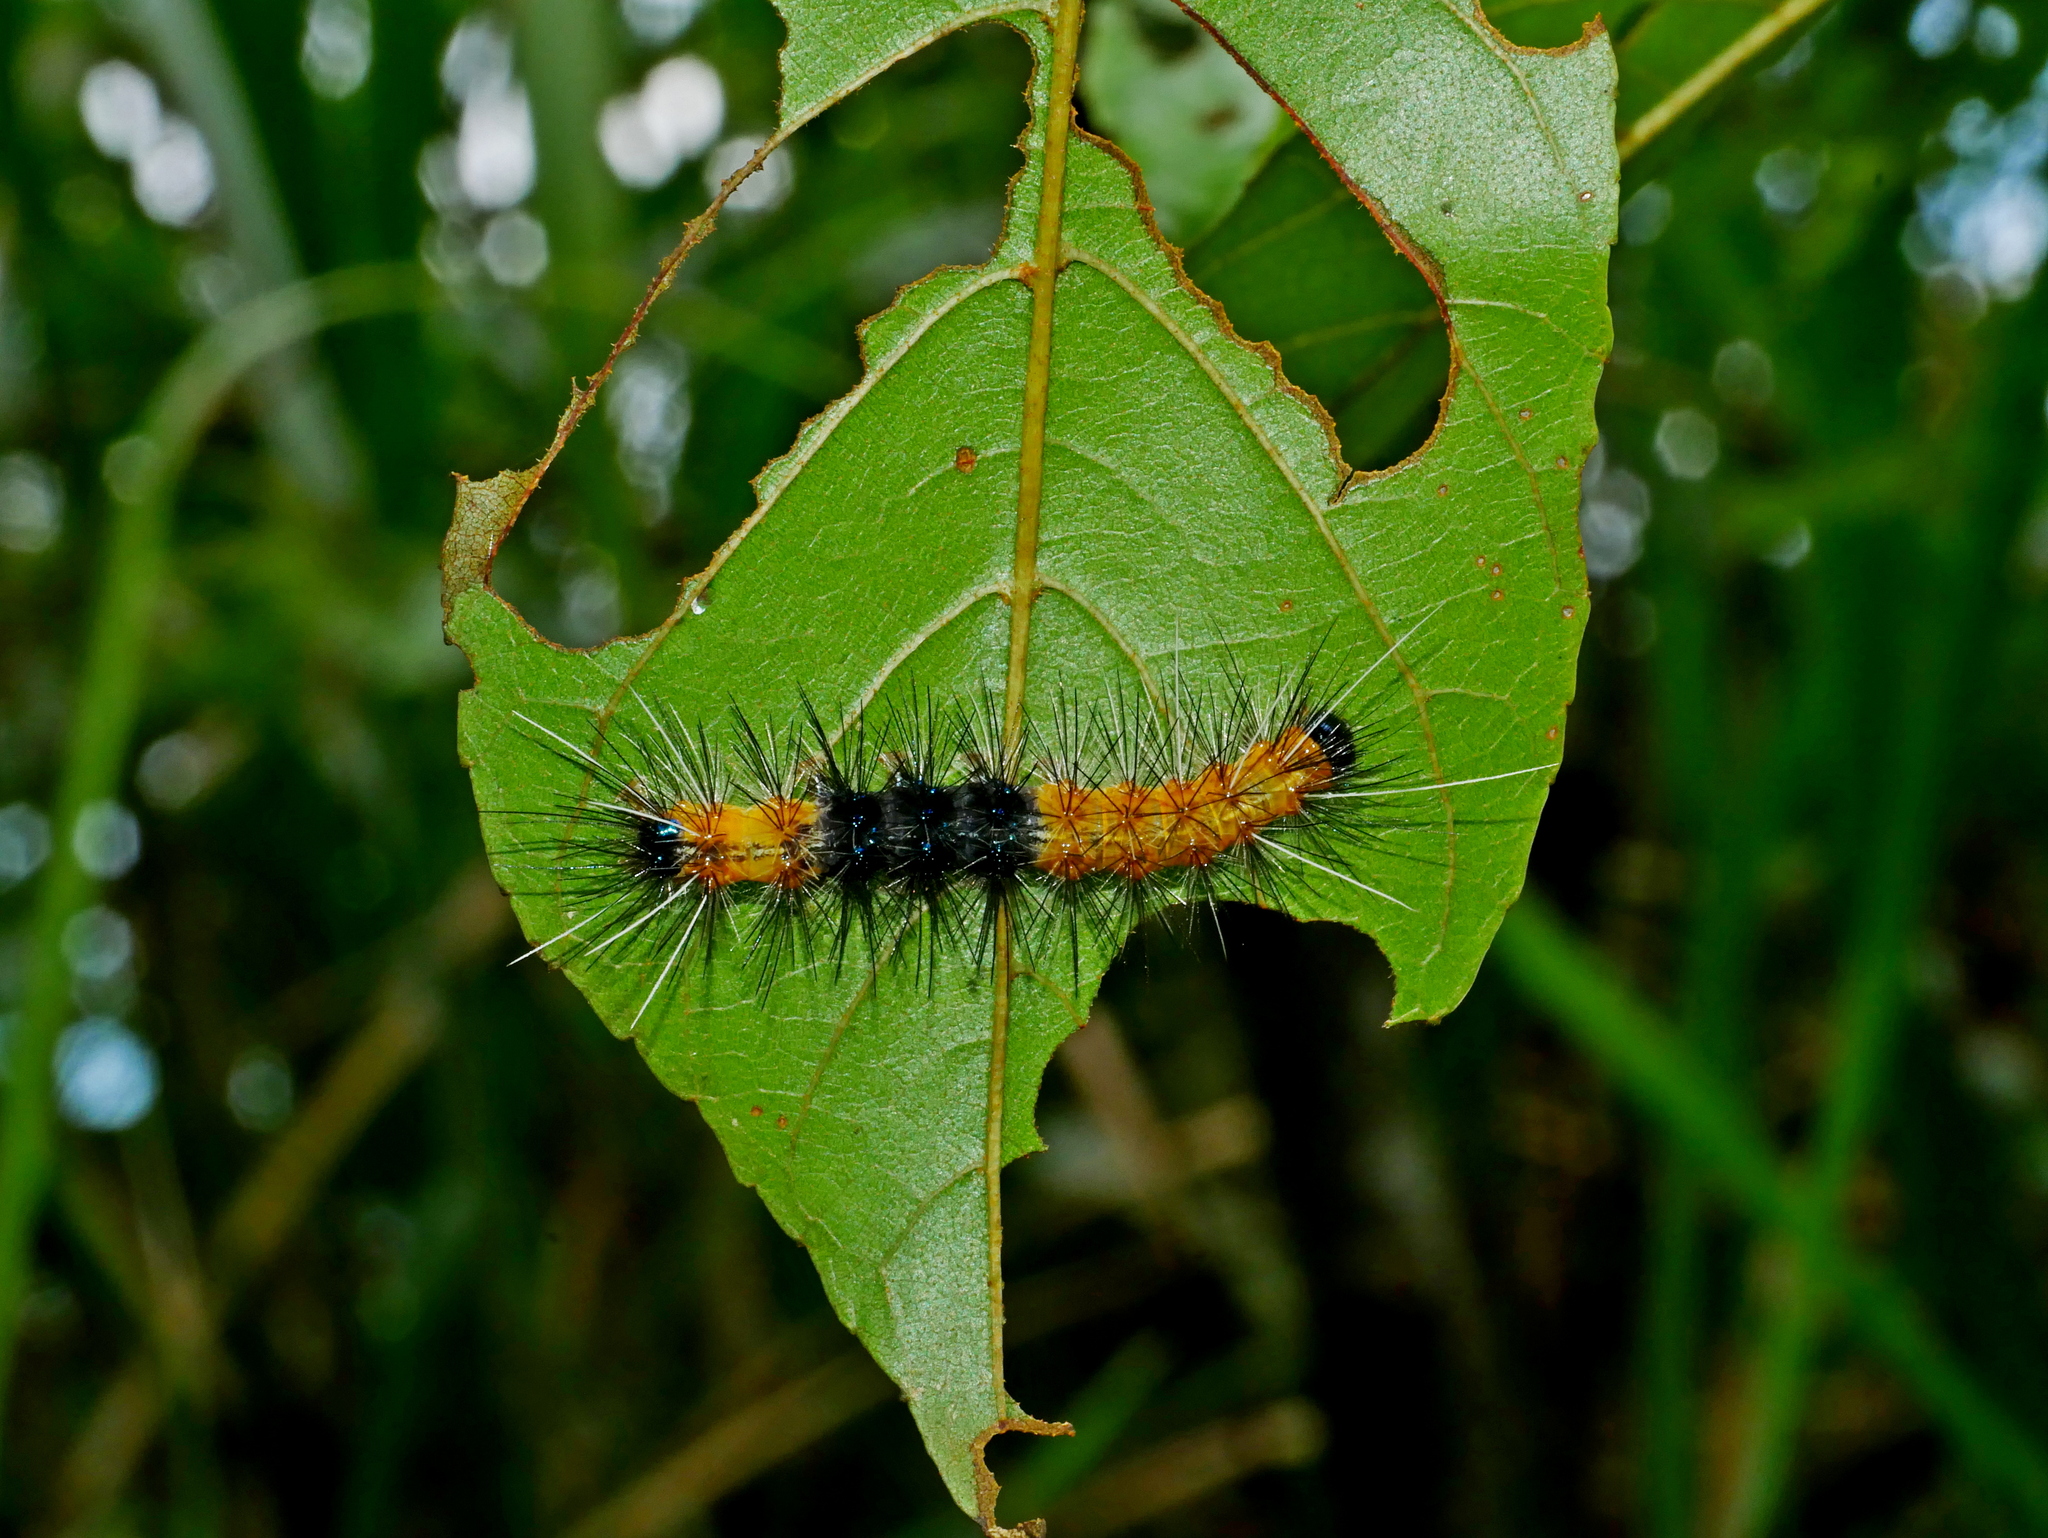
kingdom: Animalia
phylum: Arthropoda
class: Insecta
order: Lepidoptera
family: Erebidae
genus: Lemyra
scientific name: Lemyra alikangensis
